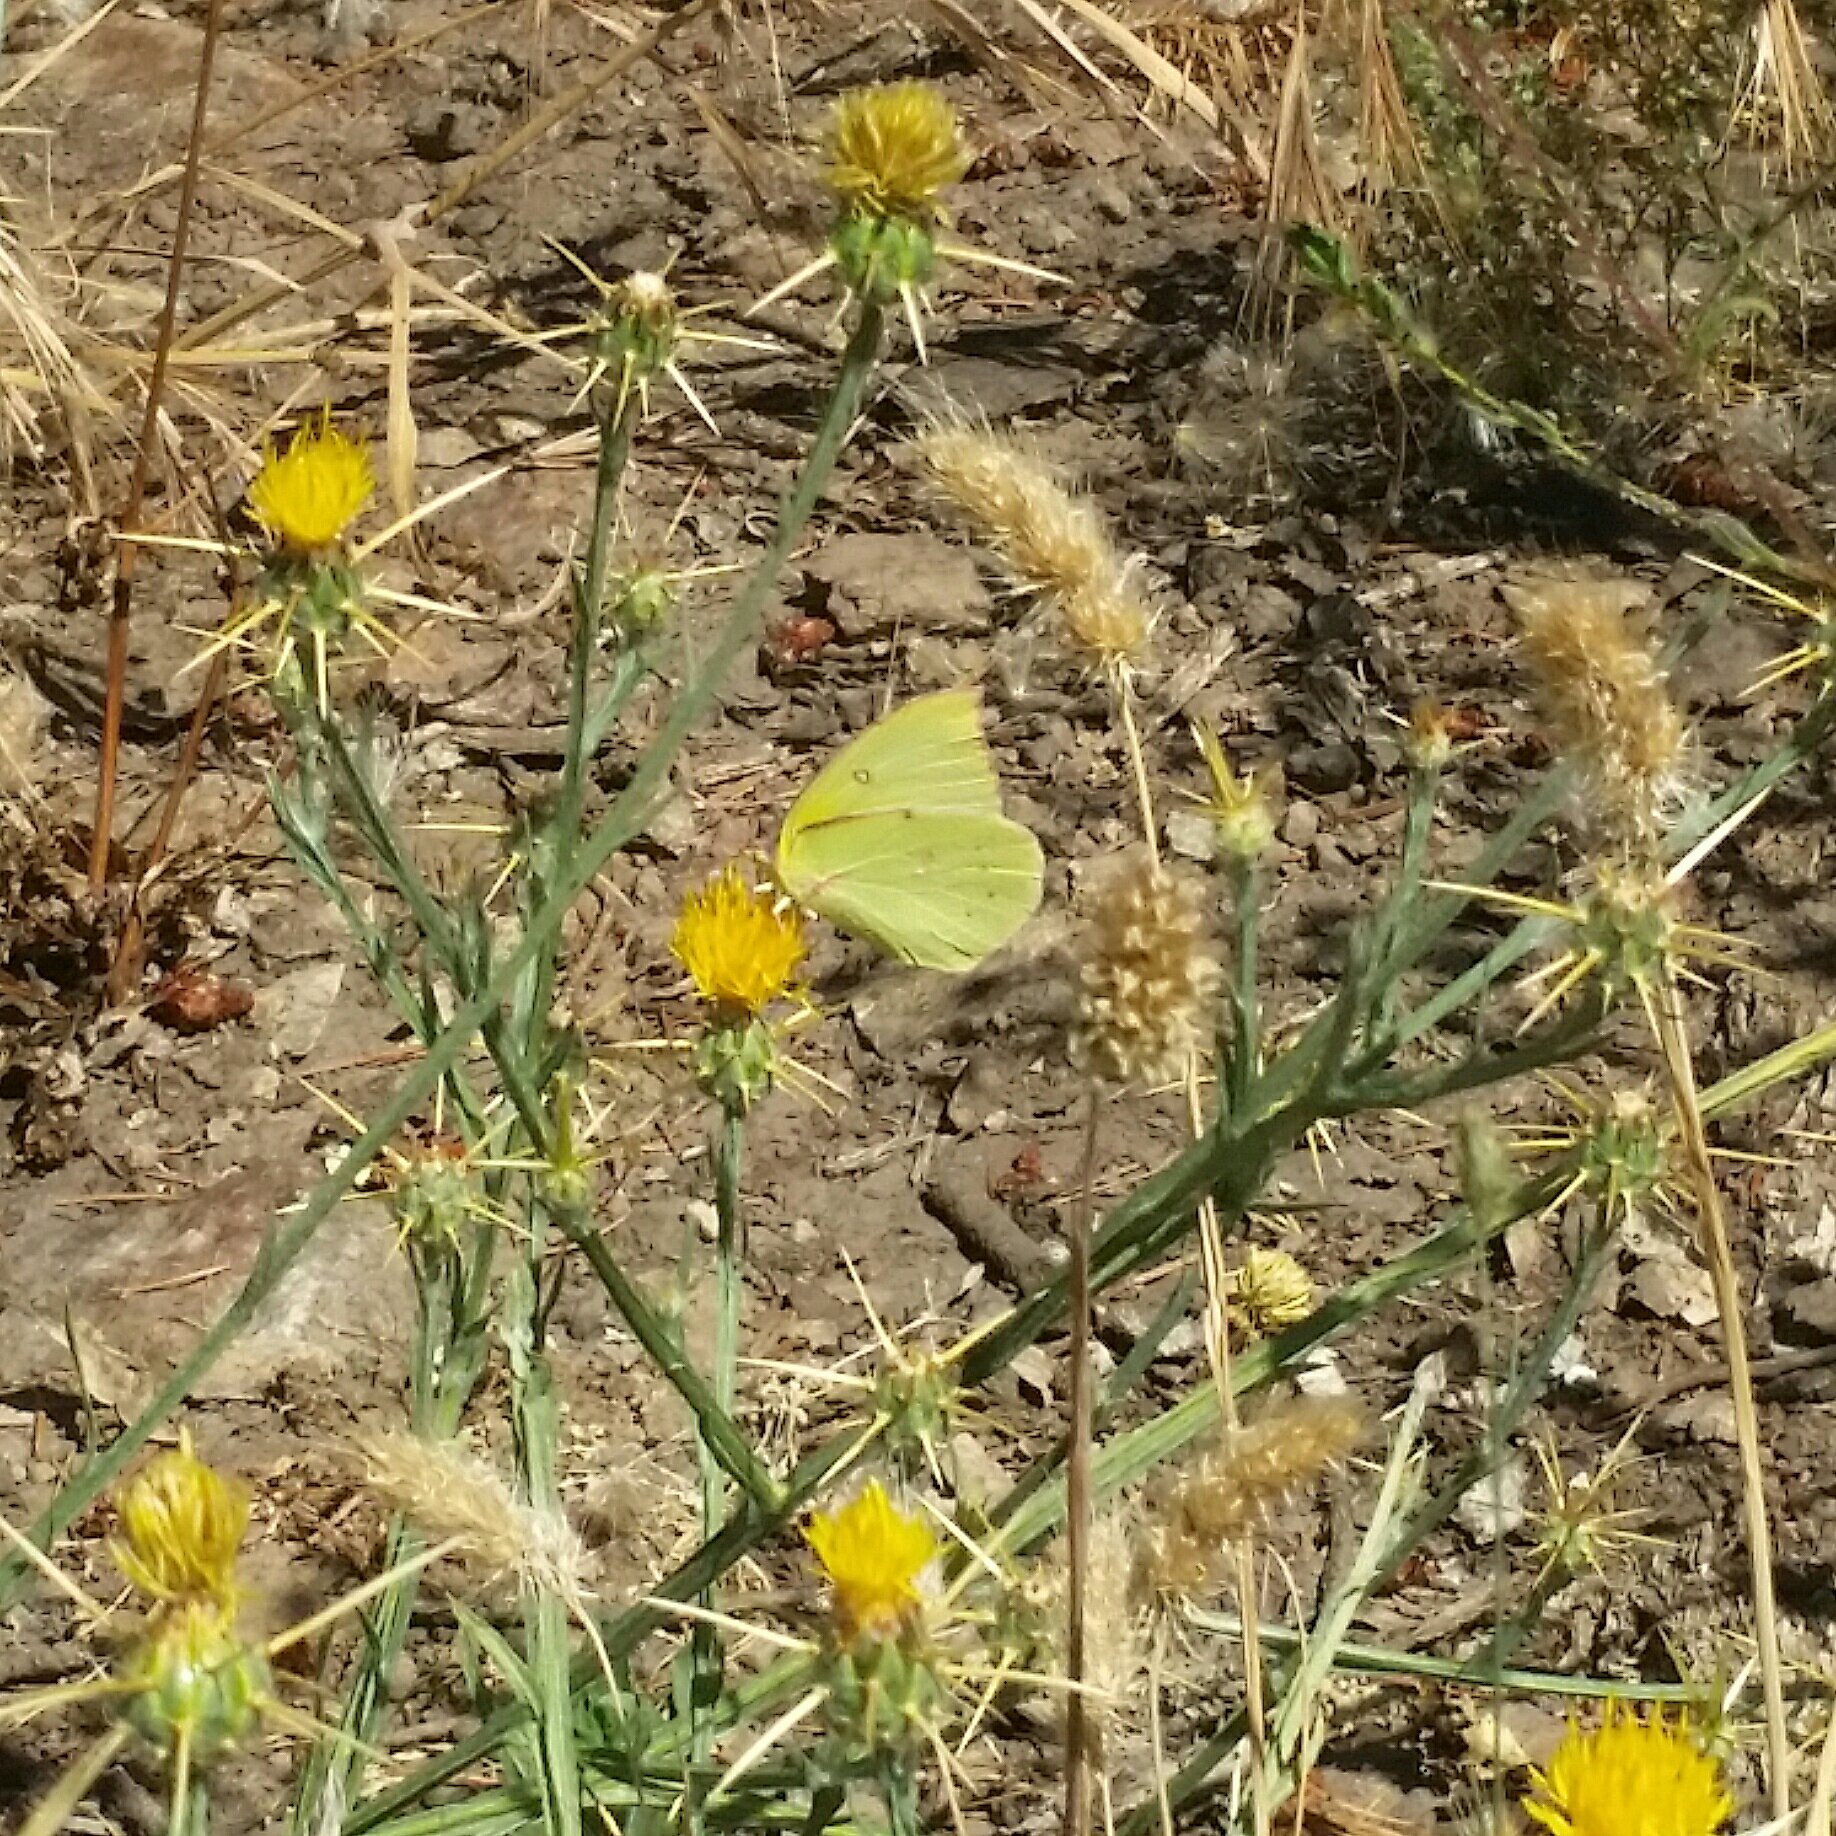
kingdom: Animalia
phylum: Arthropoda
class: Insecta
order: Lepidoptera
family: Pieridae
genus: Zerene
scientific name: Zerene eurydice
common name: California dogface
